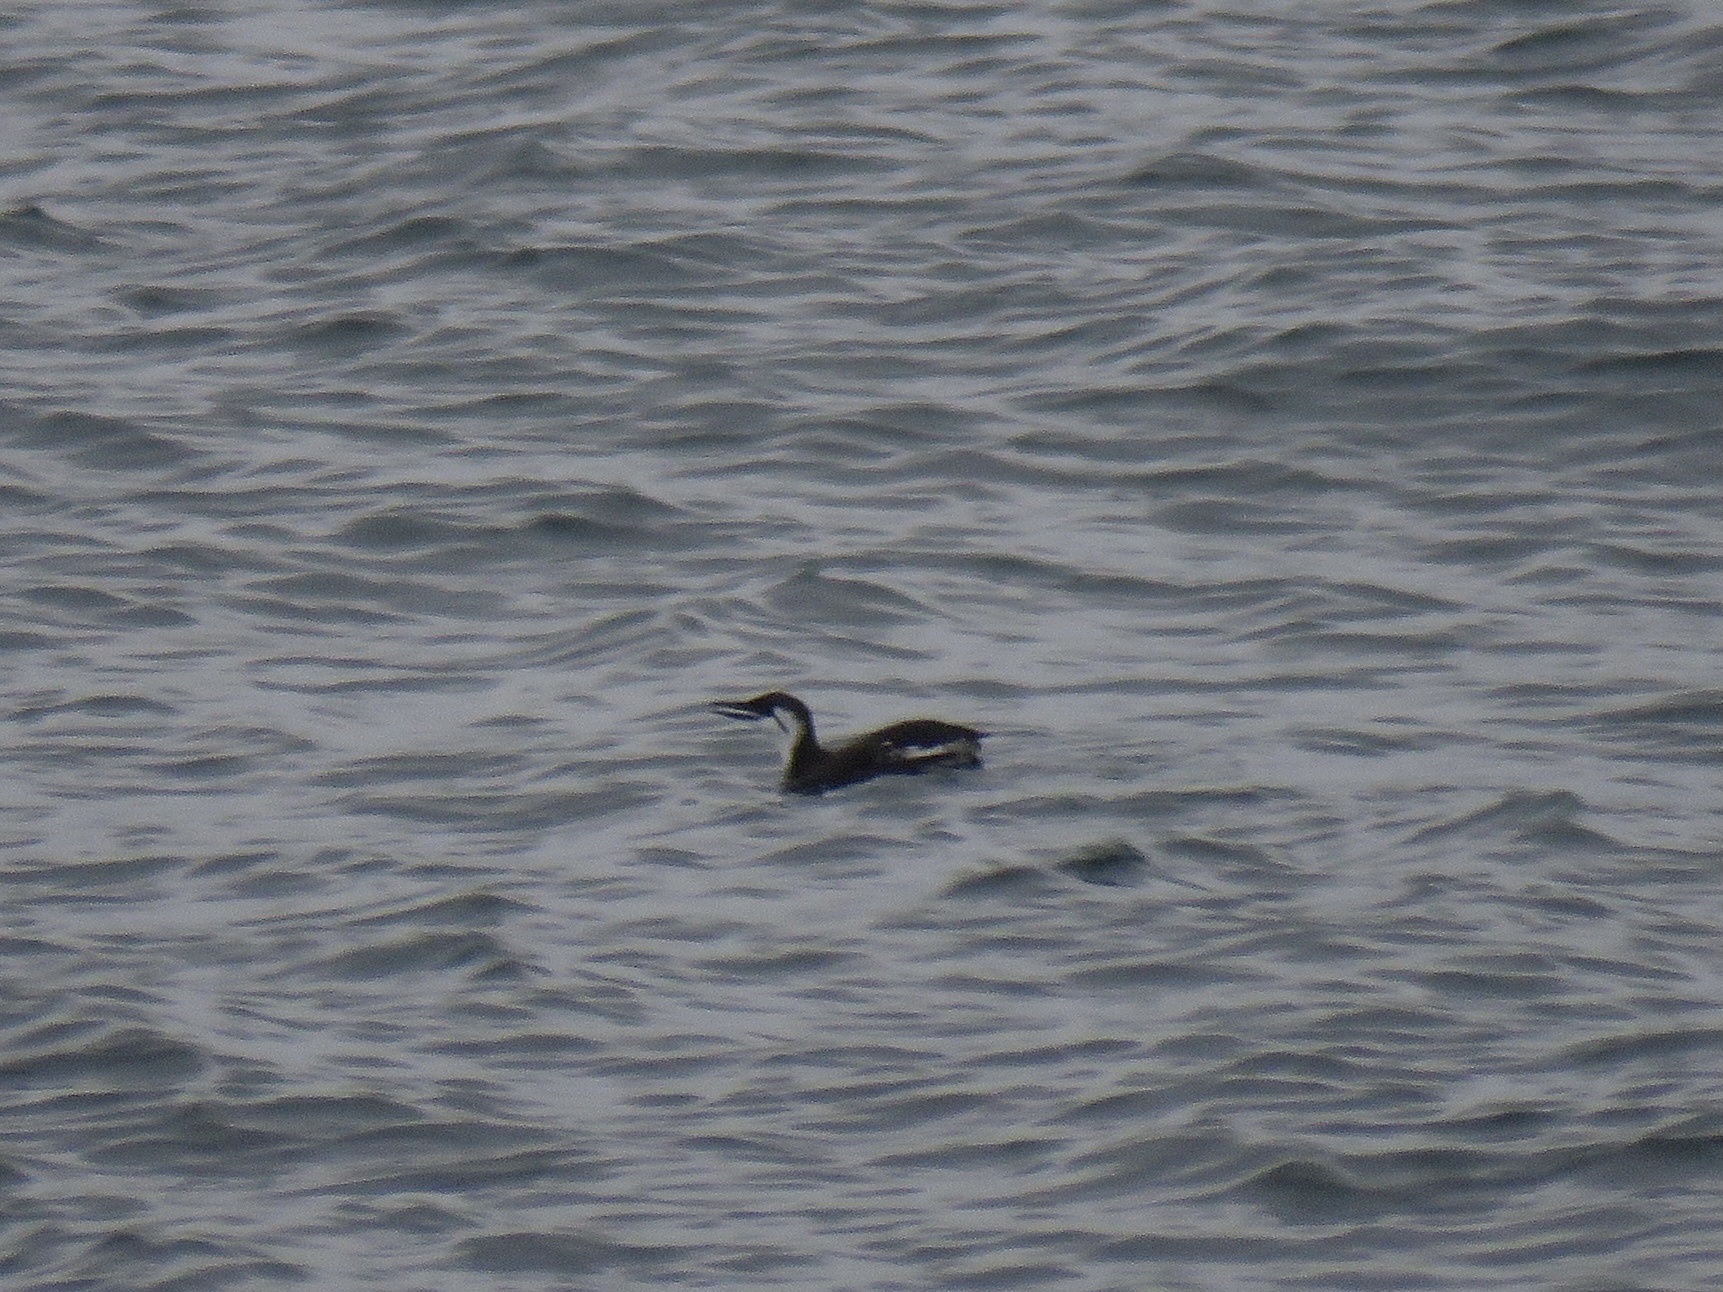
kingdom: Animalia
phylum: Chordata
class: Aves
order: Charadriiformes
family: Alcidae
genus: Uria
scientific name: Uria aalge
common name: Common murre
